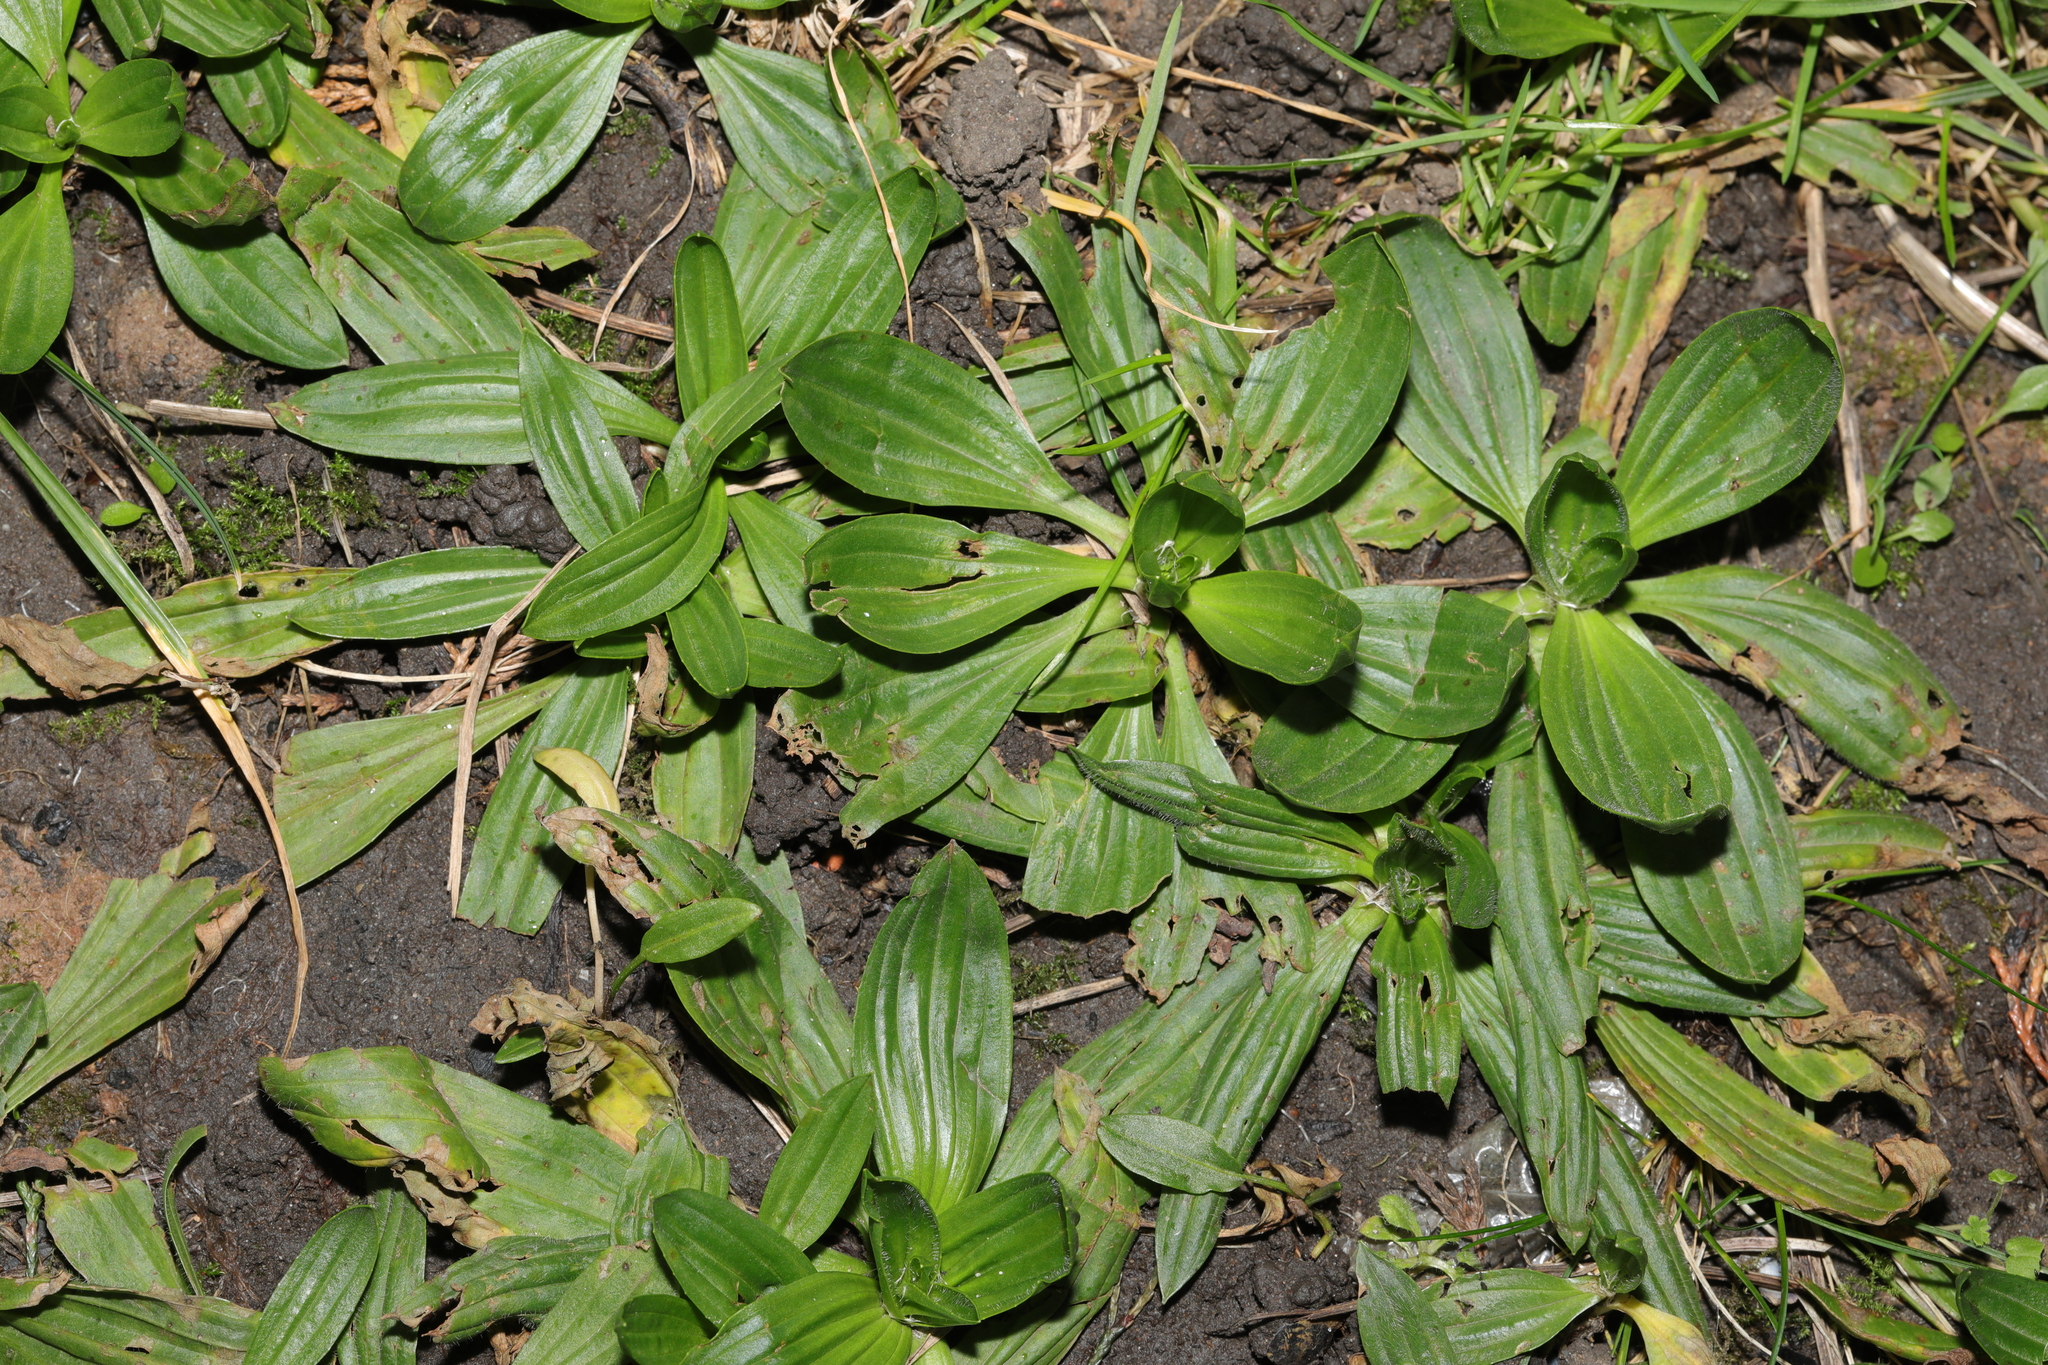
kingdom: Plantae
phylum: Tracheophyta
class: Magnoliopsida
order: Lamiales
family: Plantaginaceae
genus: Plantago
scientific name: Plantago lanceolata
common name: Ribwort plantain
